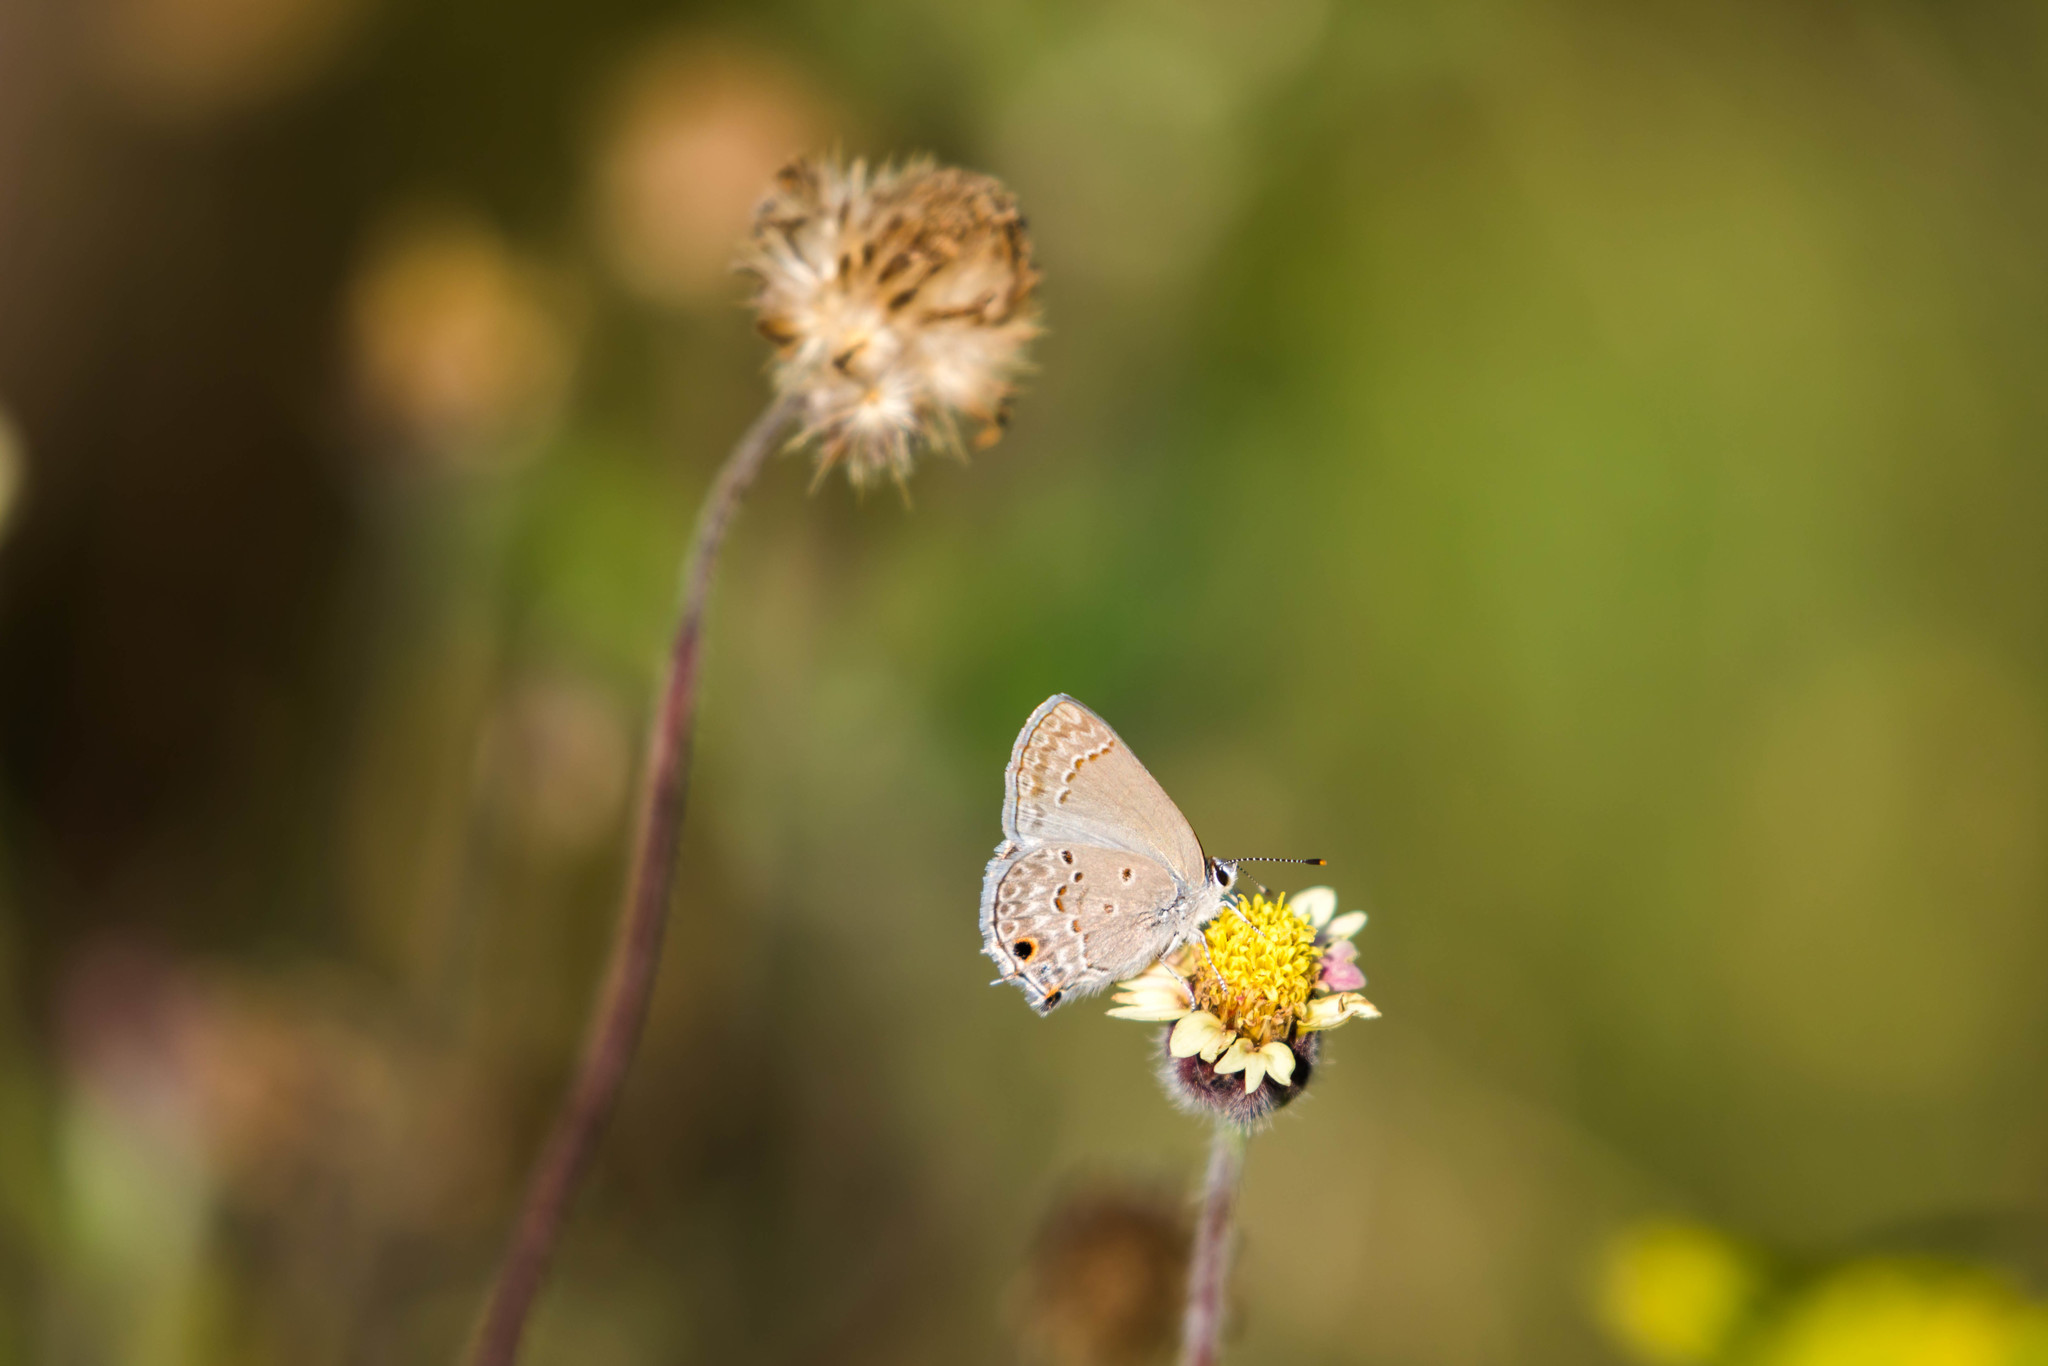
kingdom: Animalia
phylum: Arthropoda
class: Insecta
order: Lepidoptera
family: Lycaenidae
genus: Callicista
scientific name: Callicista columella
